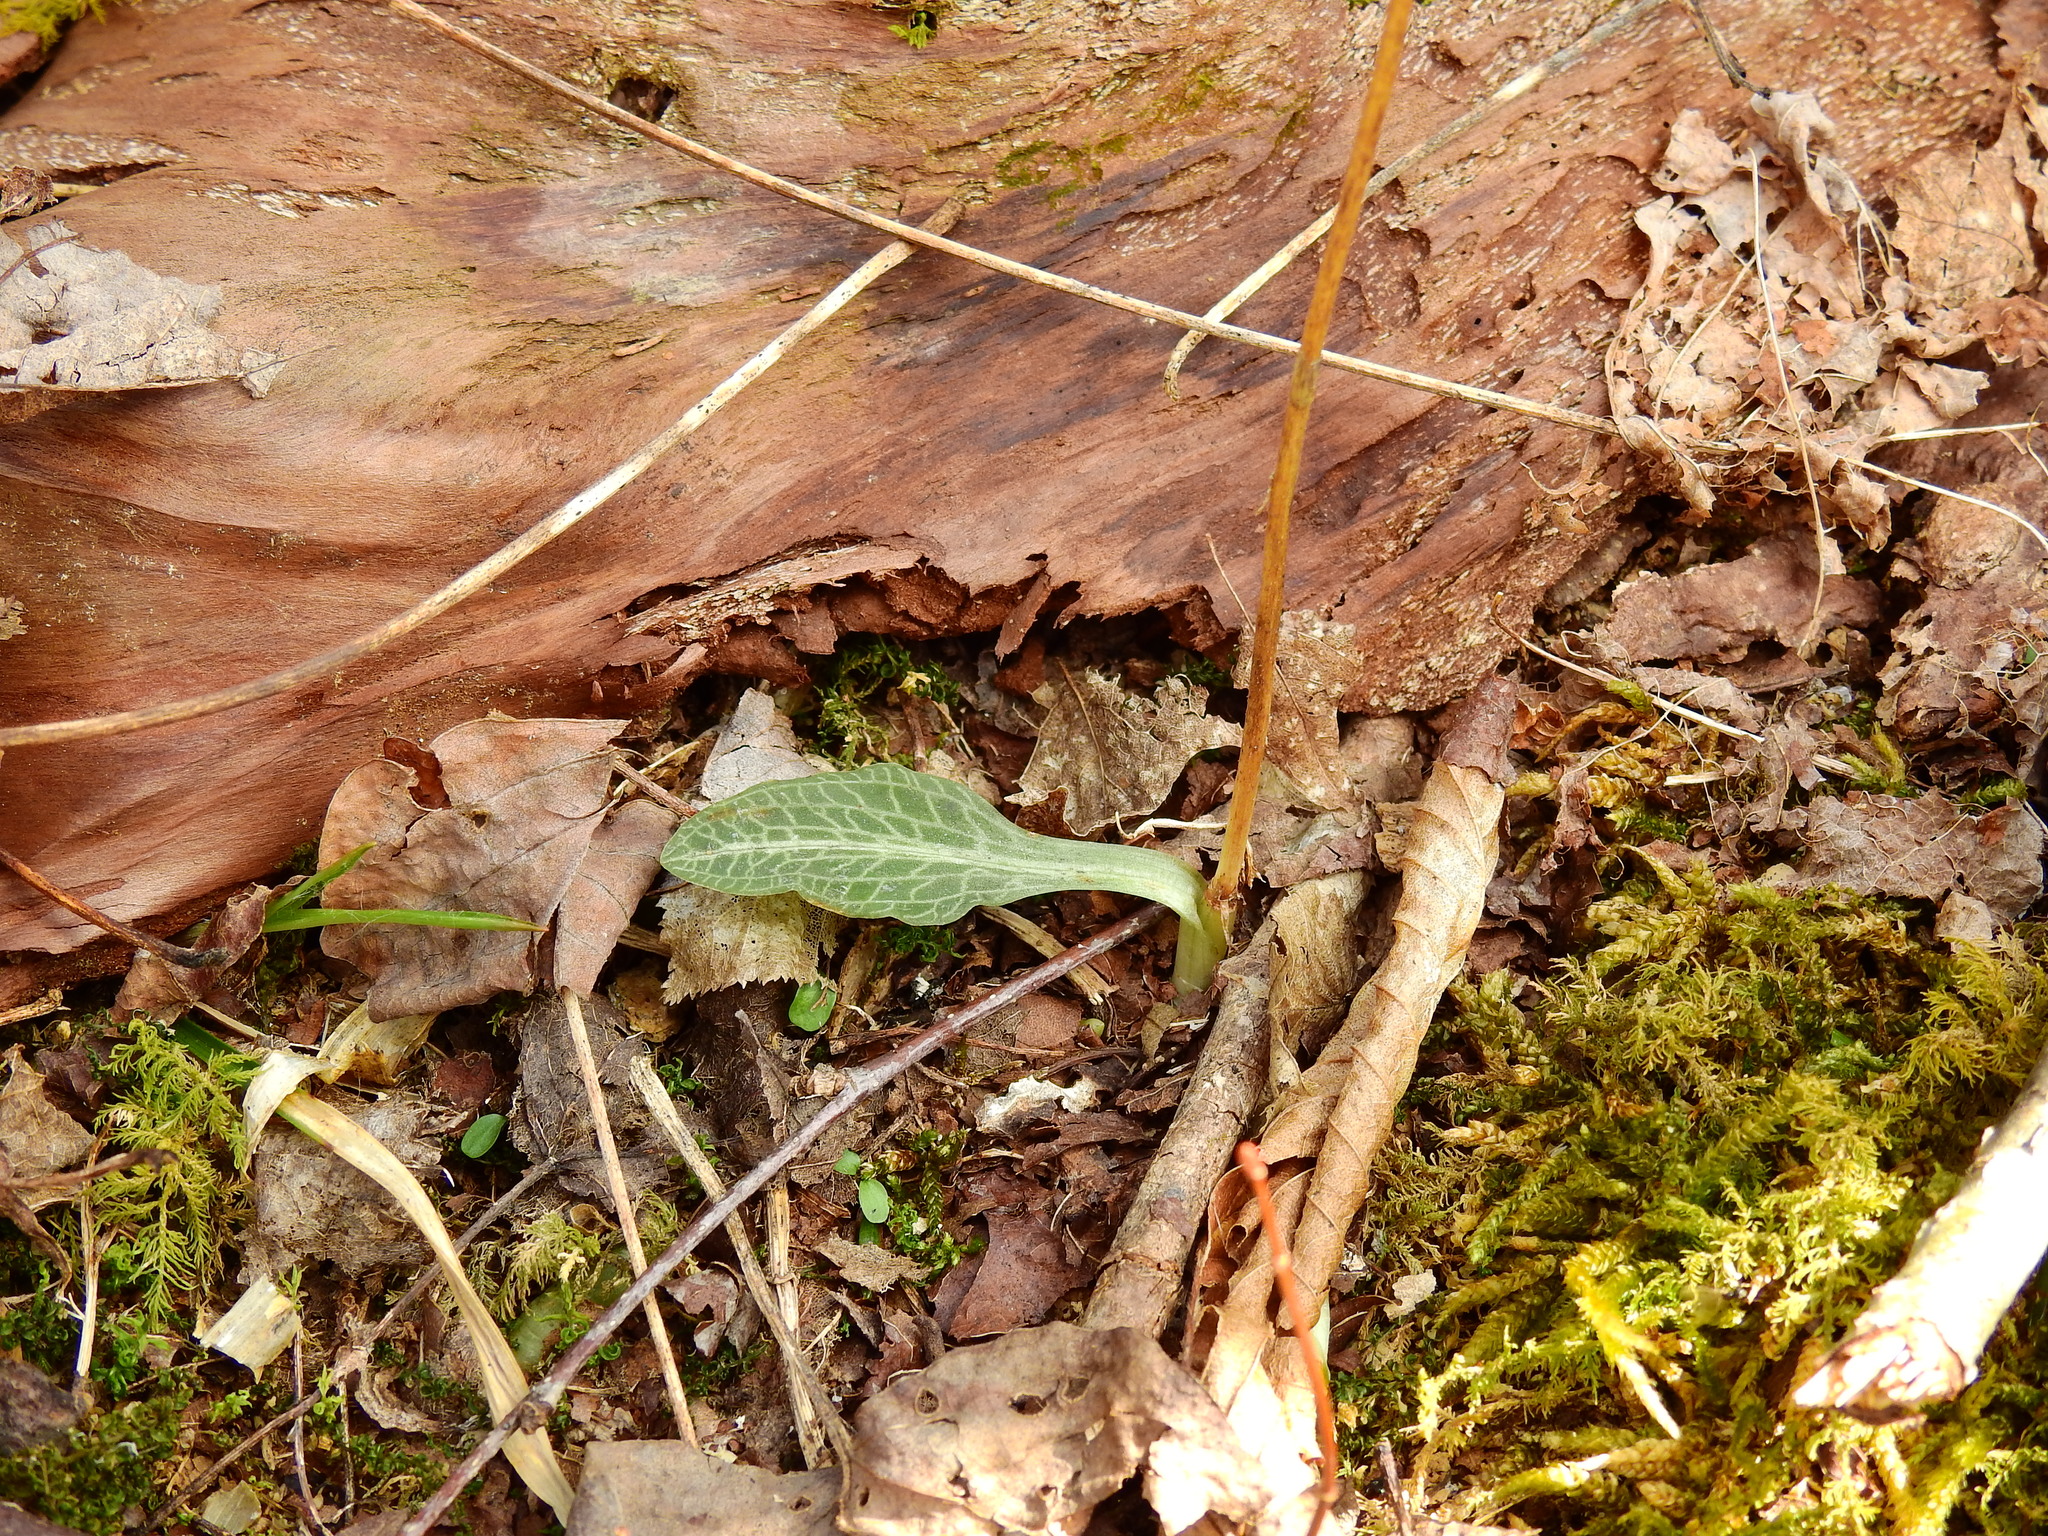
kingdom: Plantae
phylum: Tracheophyta
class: Liliopsida
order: Asparagales
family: Orchidaceae
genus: Goodyera
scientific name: Goodyera pubescens
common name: Downy rattlesnake-plantain
